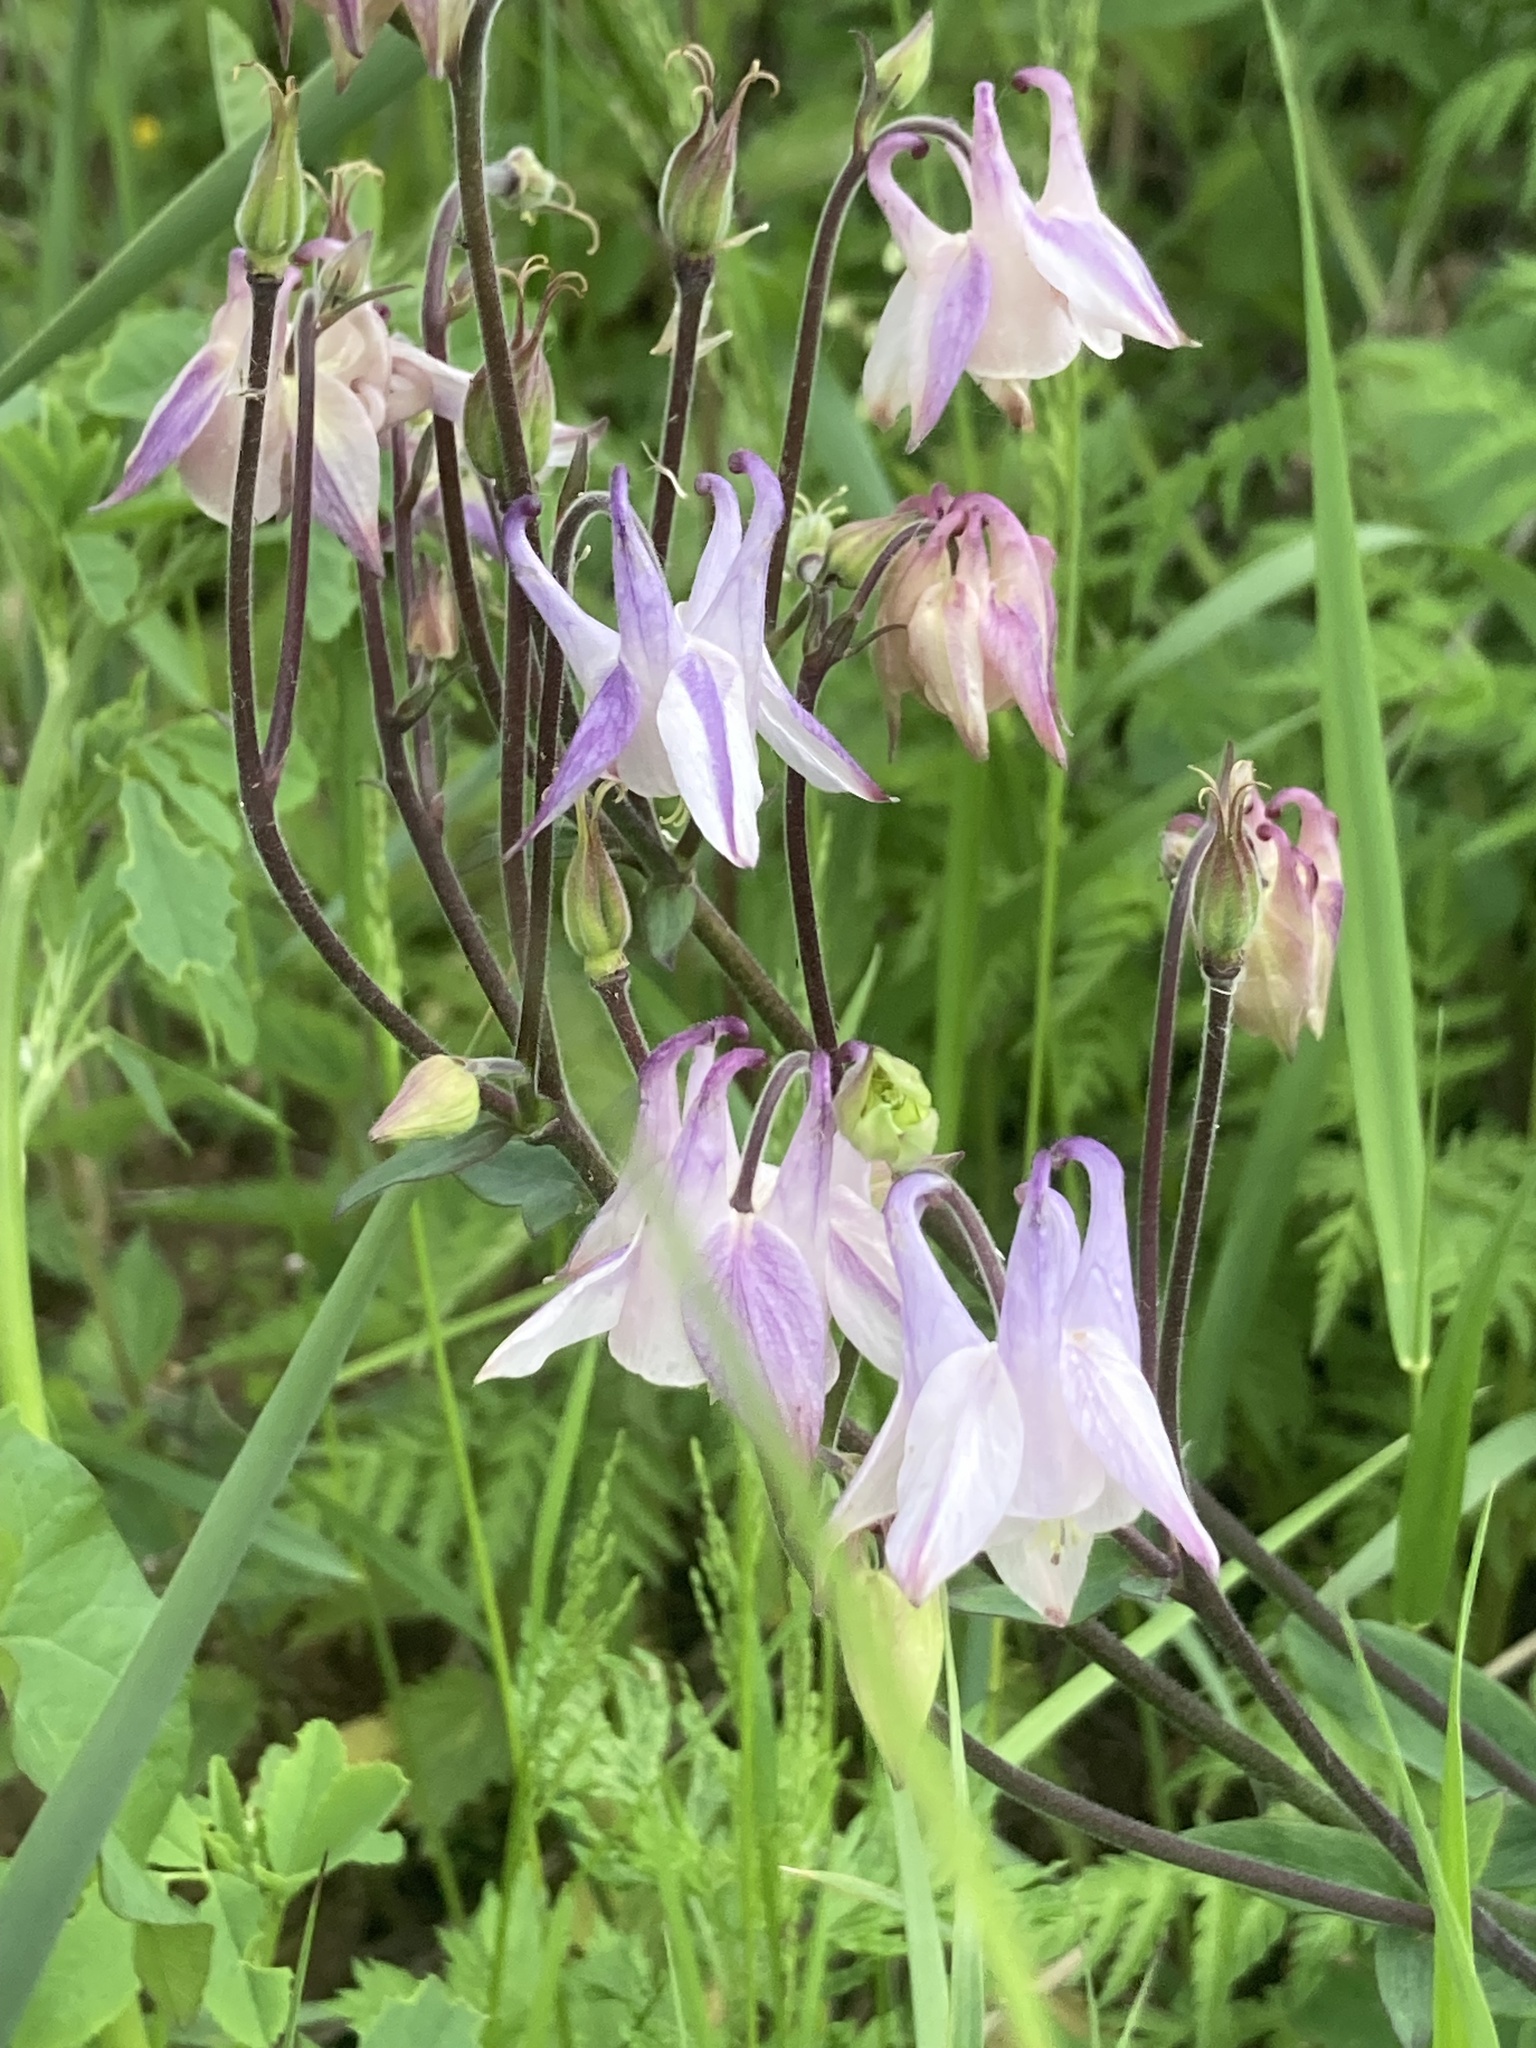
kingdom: Plantae
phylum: Tracheophyta
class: Magnoliopsida
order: Ranunculales
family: Ranunculaceae
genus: Aquilegia
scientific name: Aquilegia vulgaris
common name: Columbine
